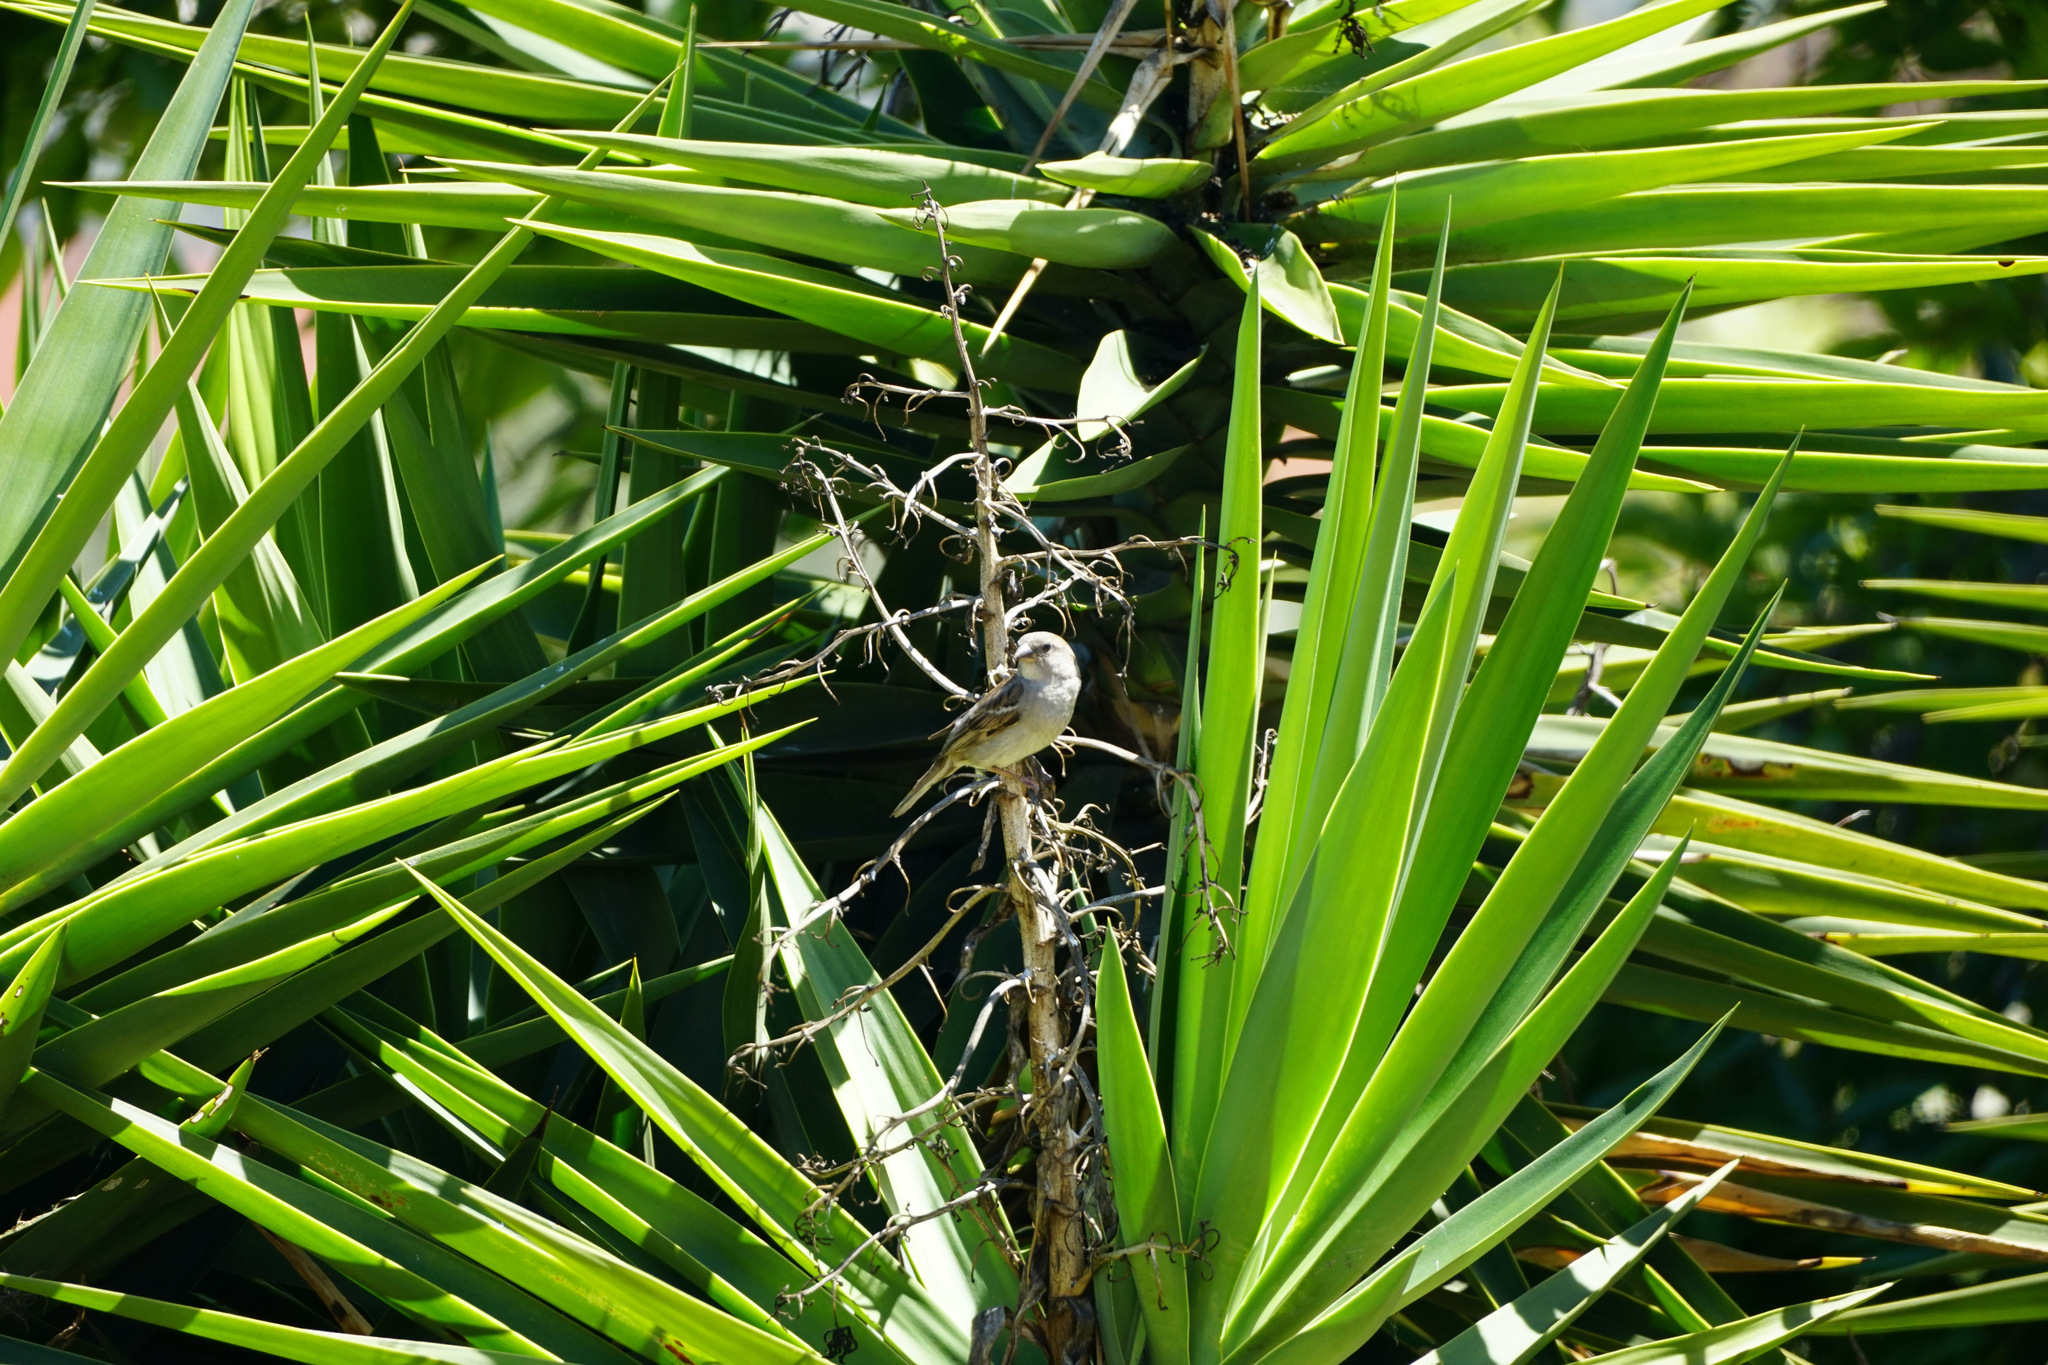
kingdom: Animalia
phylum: Chordata
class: Aves
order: Passeriformes
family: Passeridae
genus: Passer
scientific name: Passer domesticus
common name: House sparrow
